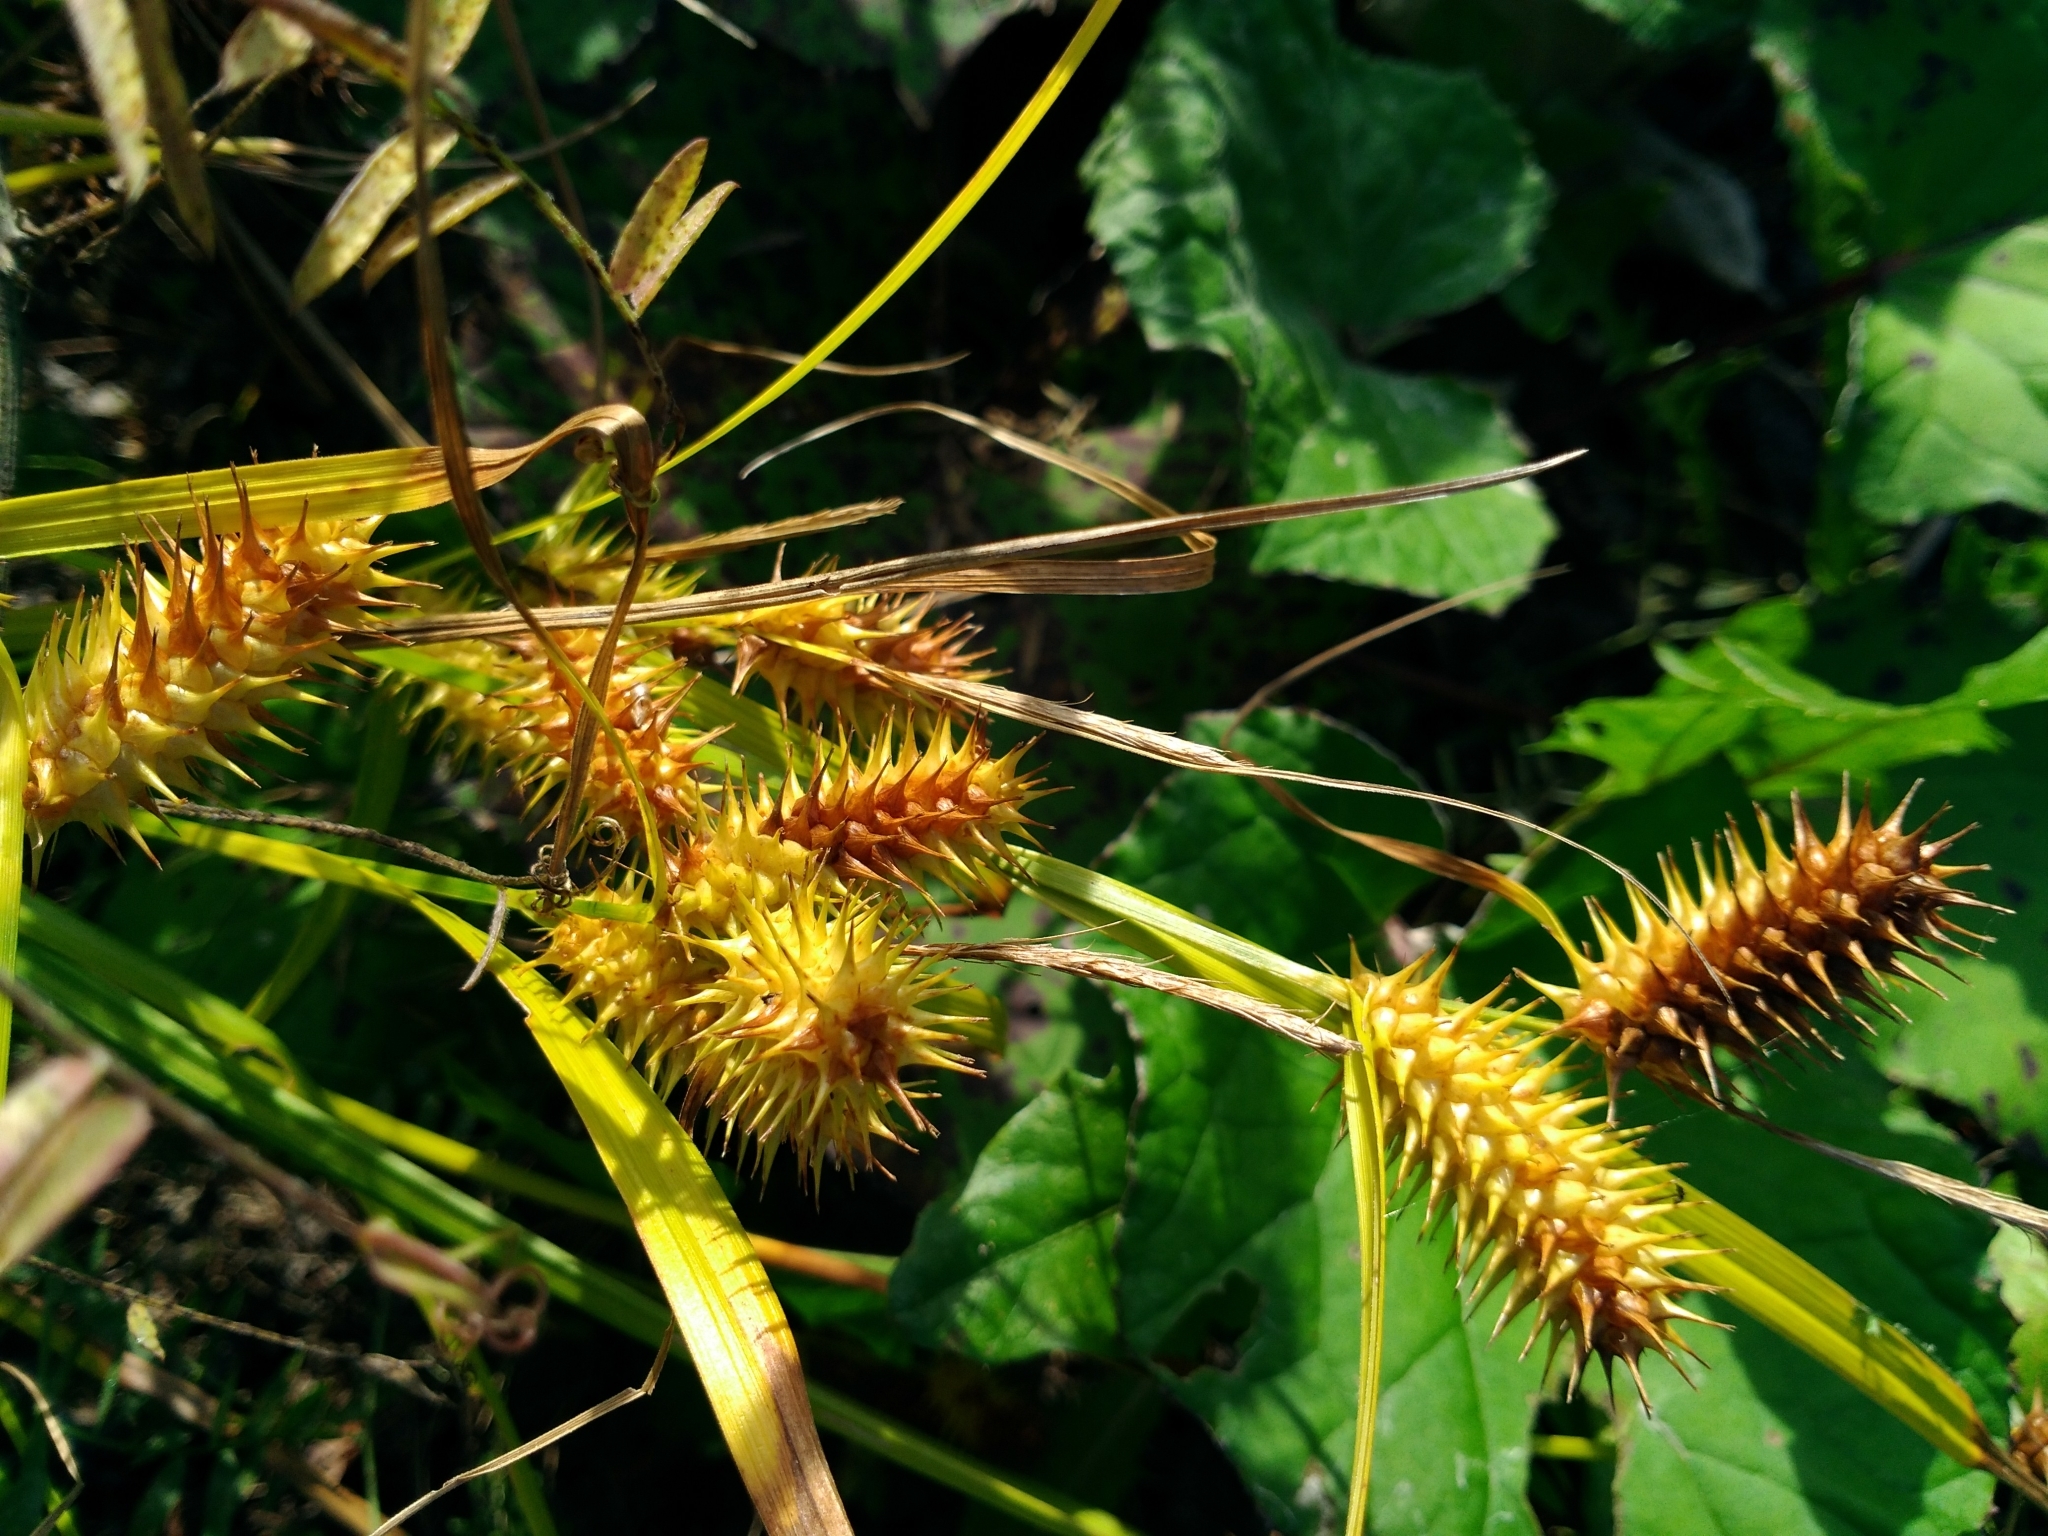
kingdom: Plantae
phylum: Tracheophyta
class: Liliopsida
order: Poales
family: Cyperaceae
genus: Carex
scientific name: Carex lurida
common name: Sallow sedge
